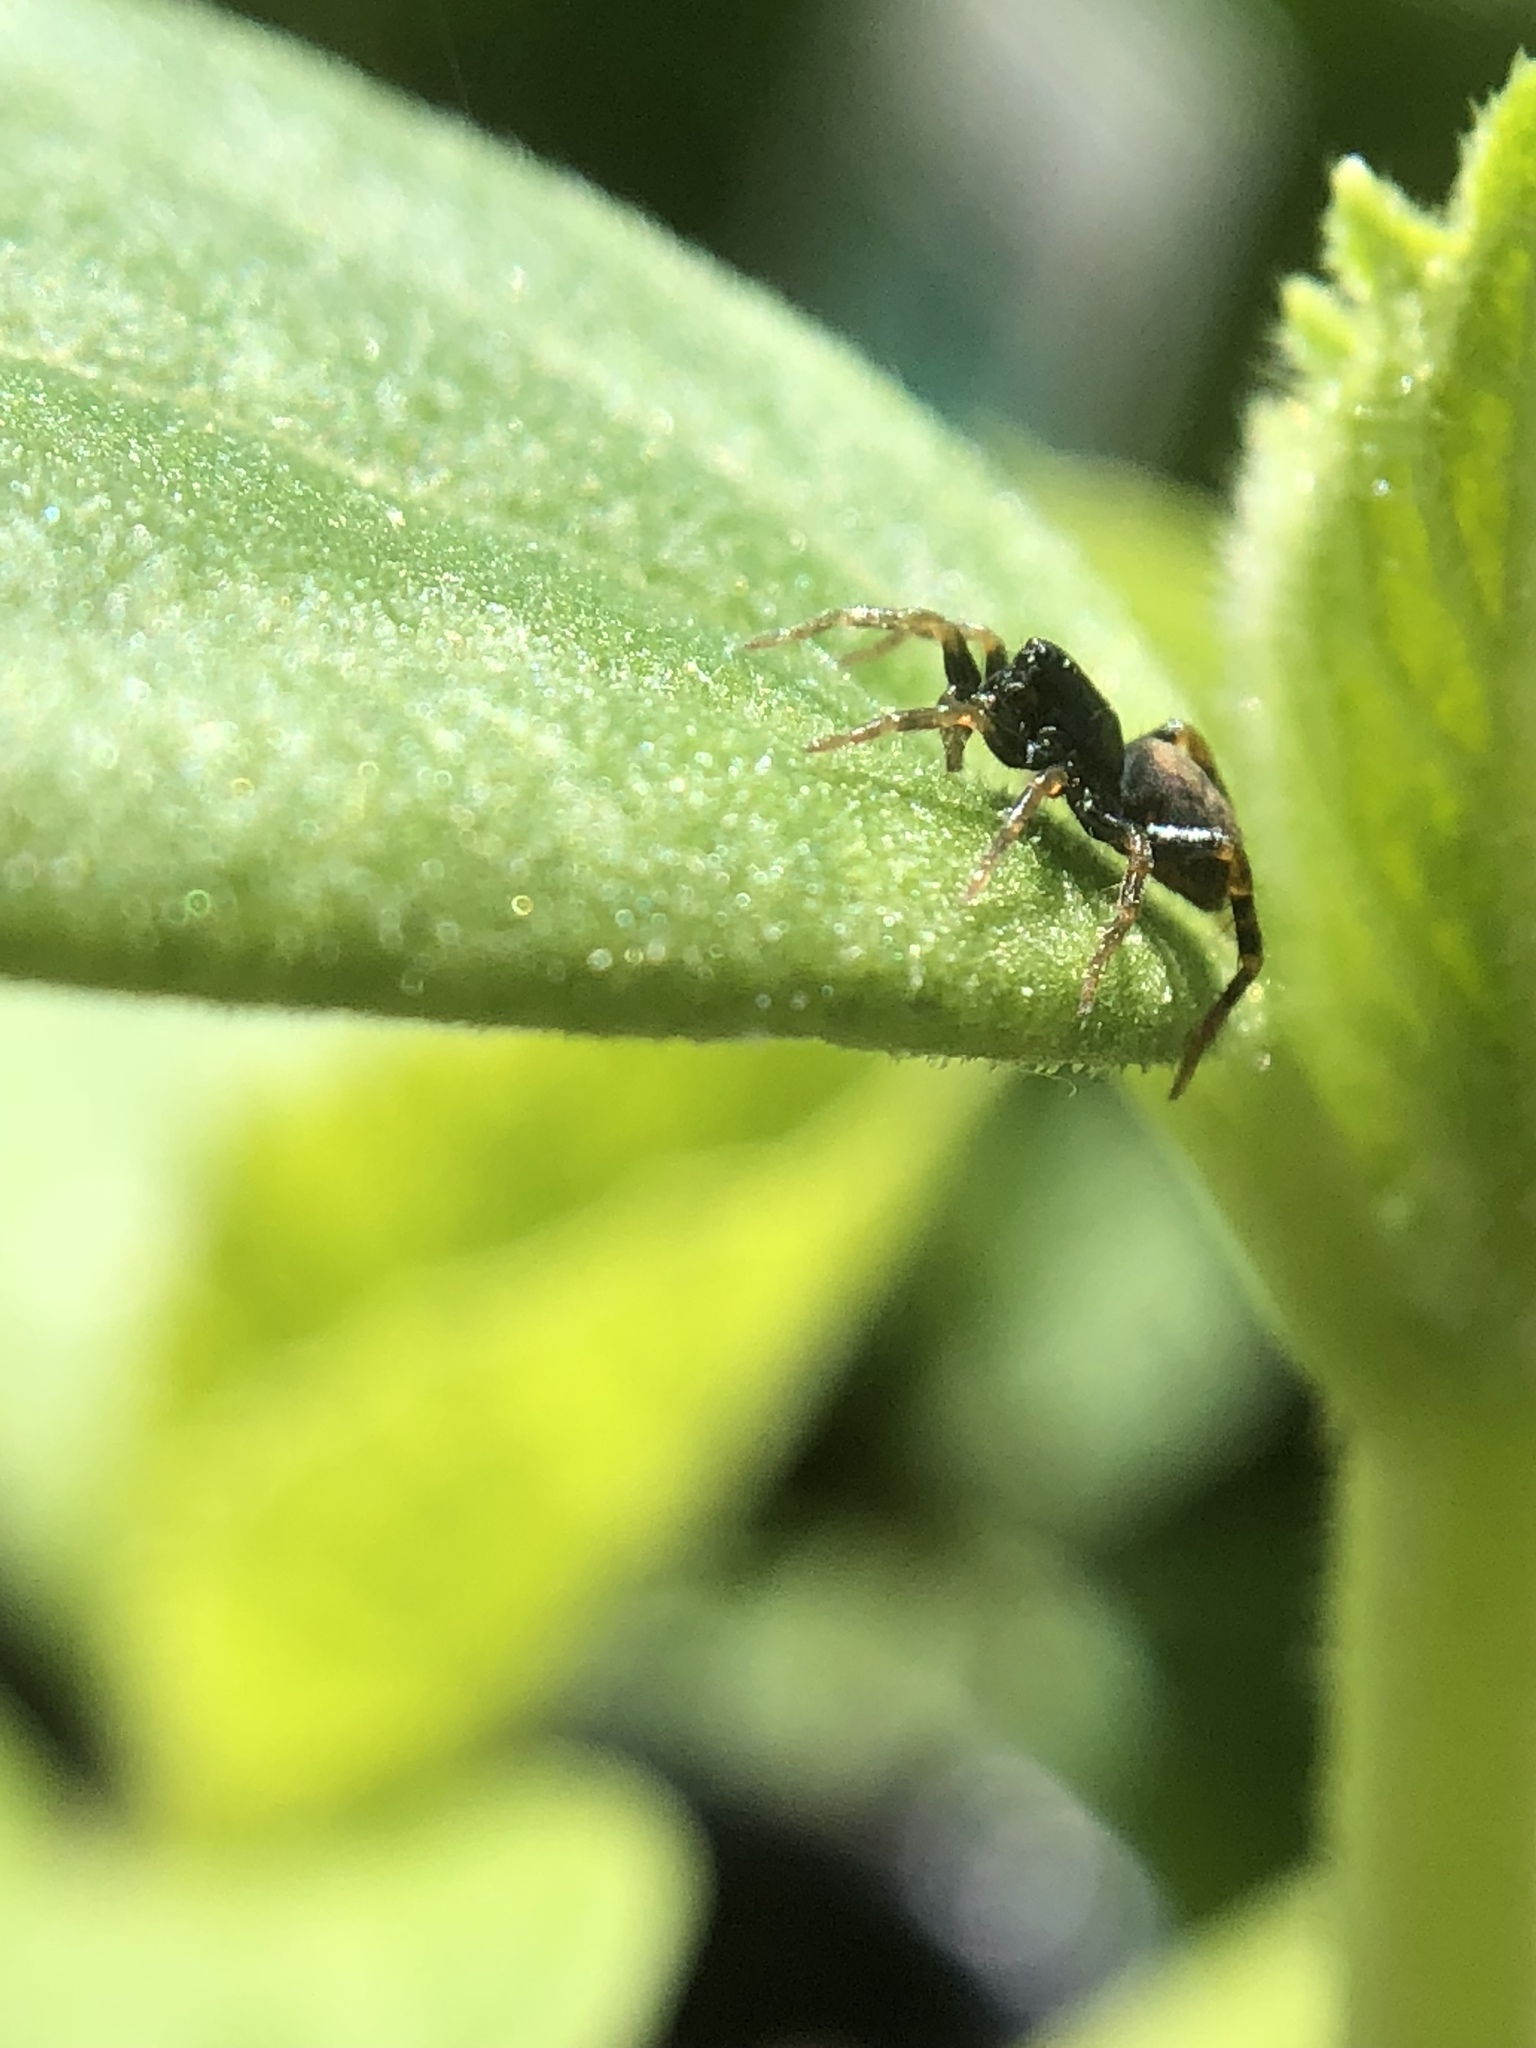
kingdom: Animalia
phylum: Arthropoda
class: Arachnida
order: Araneae
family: Lycosidae
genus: Allocosa
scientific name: Allocosa funerea
